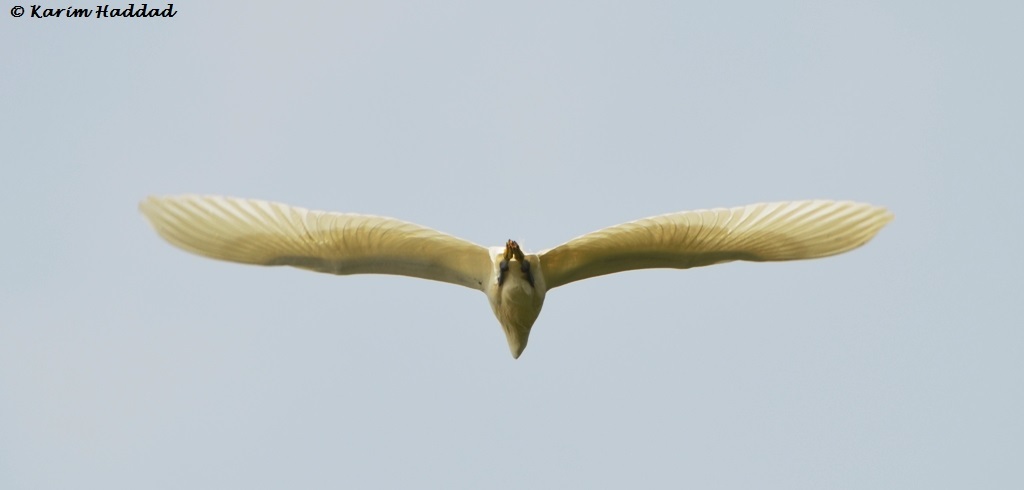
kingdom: Animalia
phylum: Chordata
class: Aves
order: Pelecaniformes
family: Ardeidae
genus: Egretta
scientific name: Egretta garzetta
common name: Little egret
